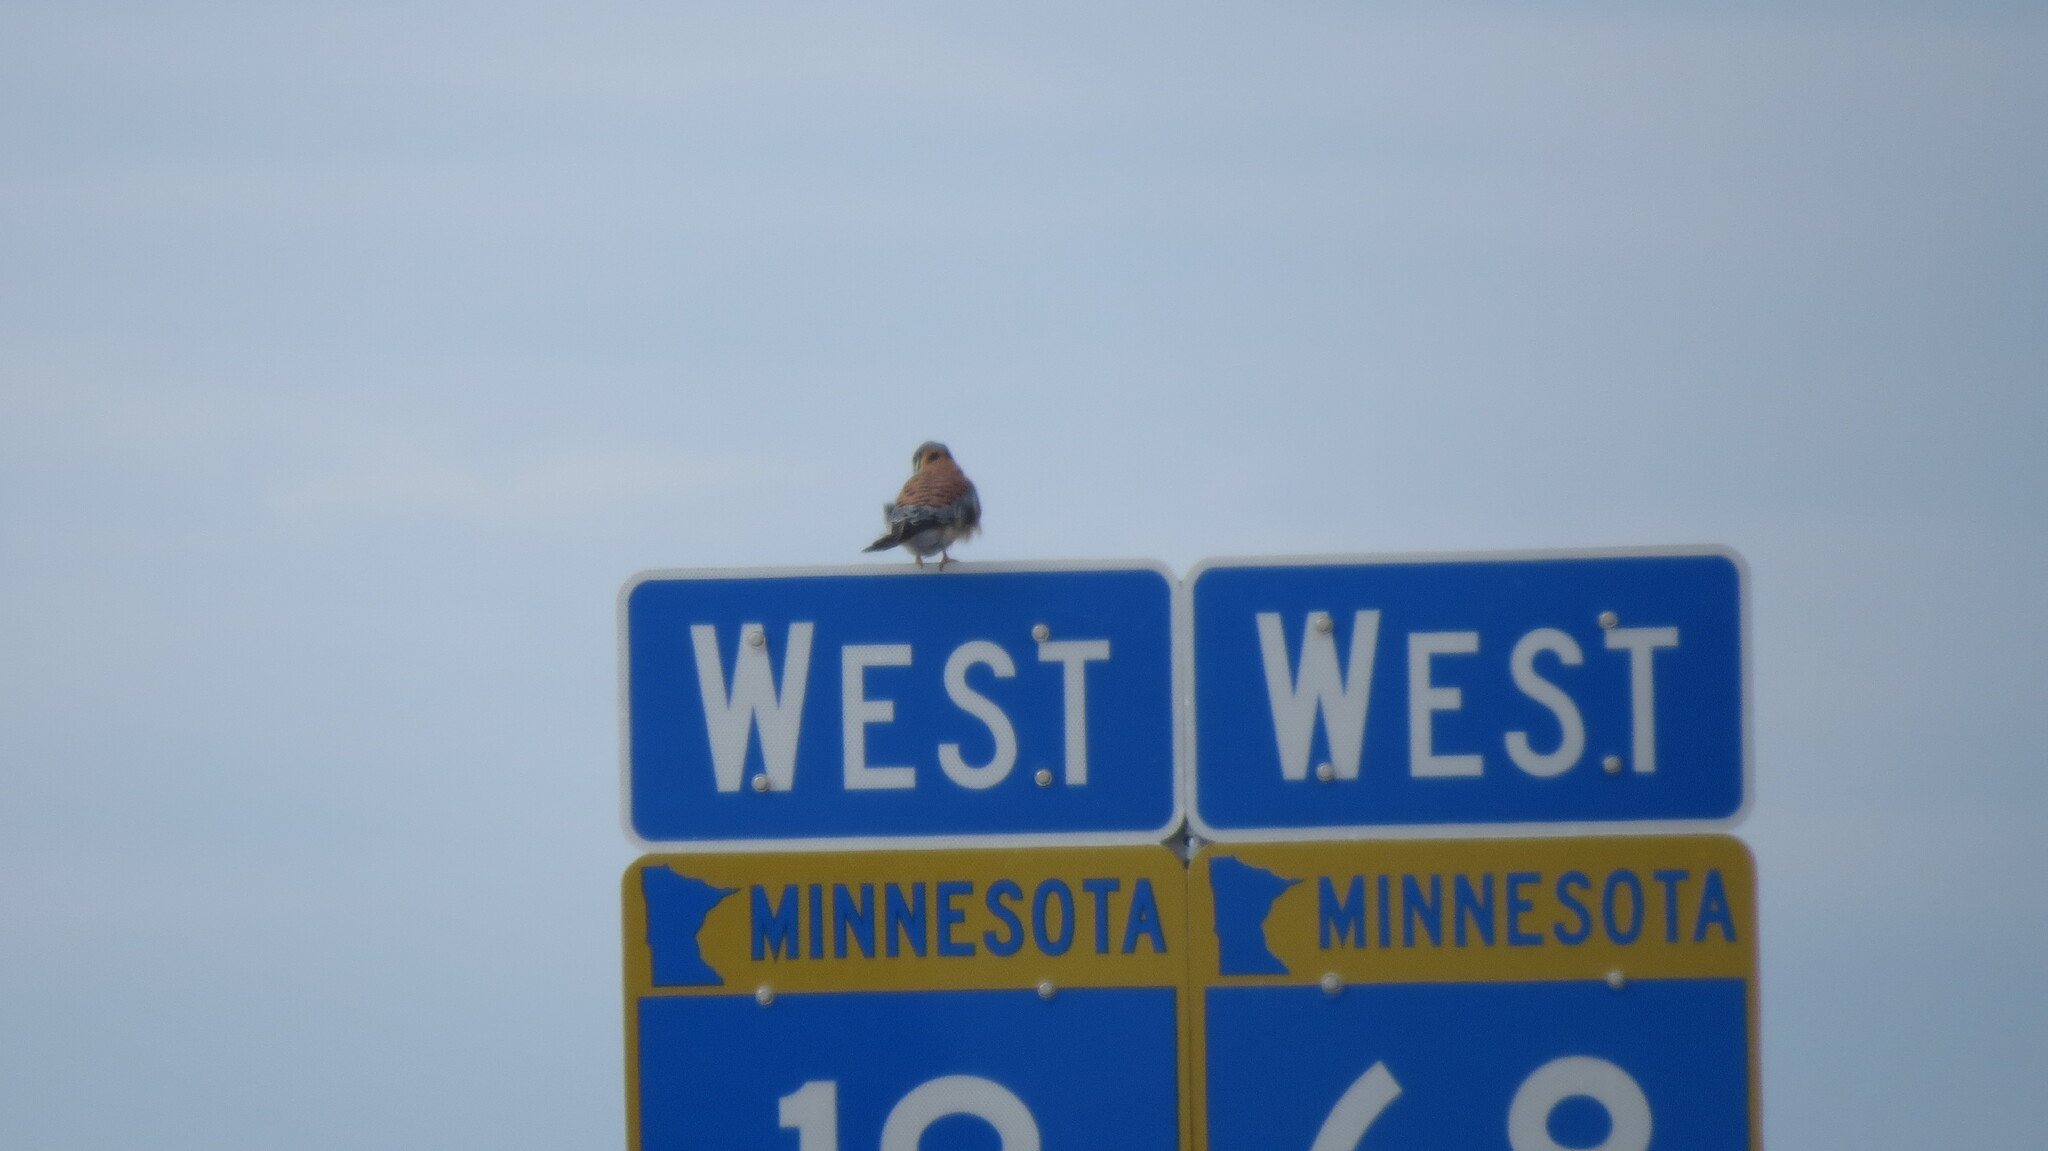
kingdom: Animalia
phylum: Chordata
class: Aves
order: Falconiformes
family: Falconidae
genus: Falco
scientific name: Falco sparverius
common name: American kestrel
